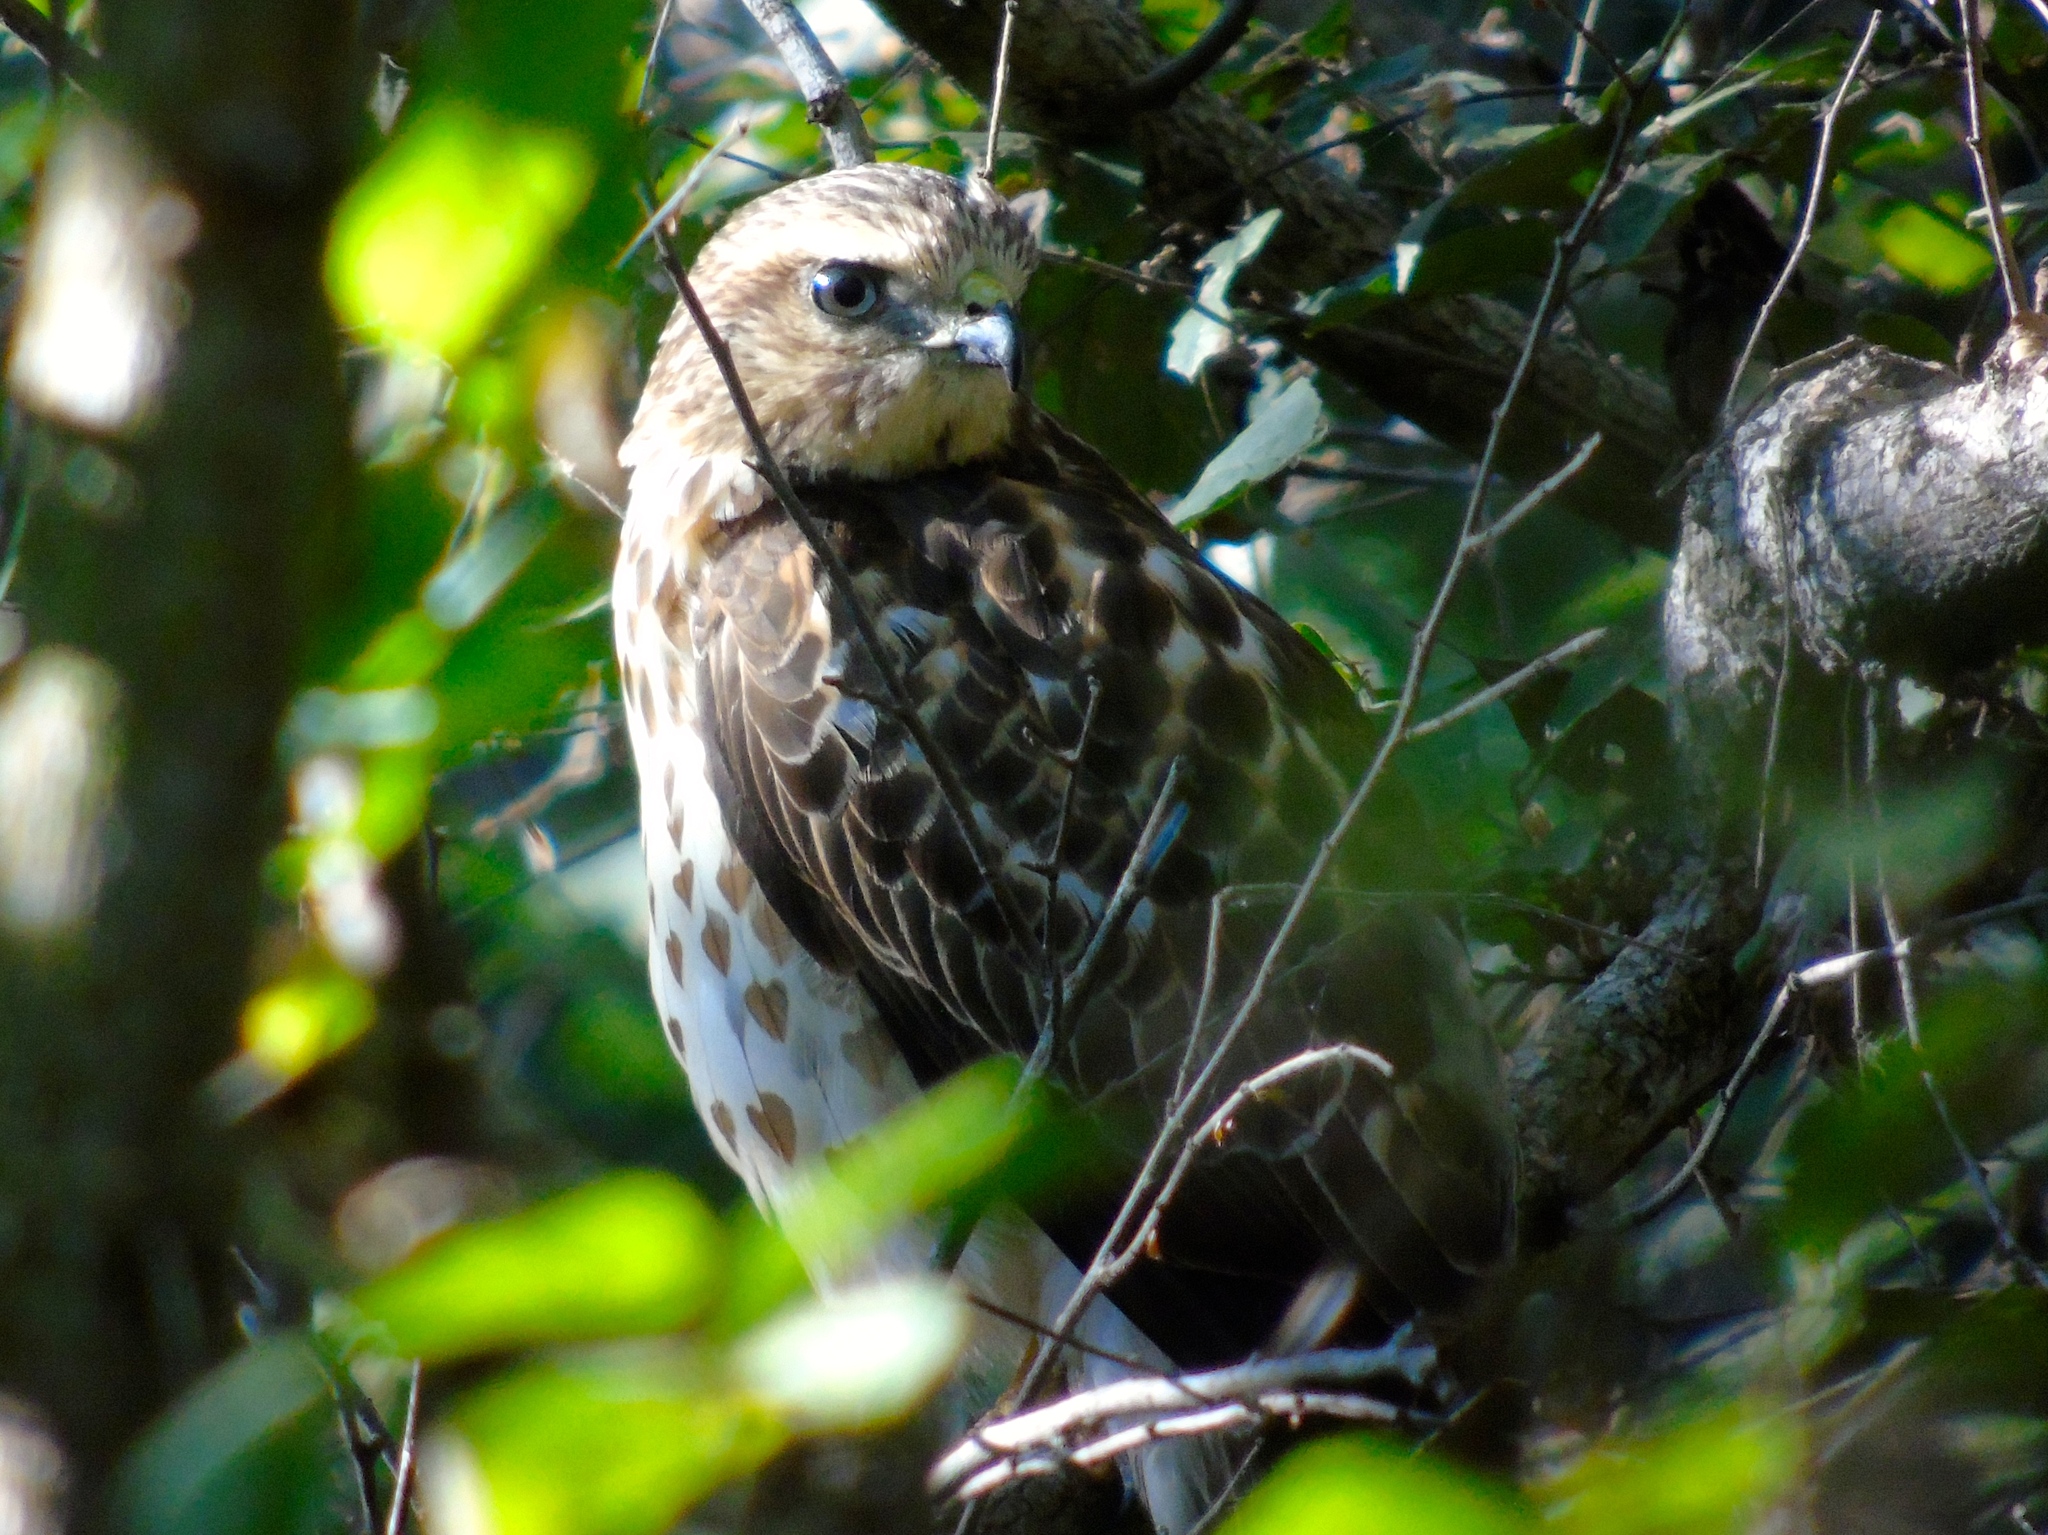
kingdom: Animalia
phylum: Chordata
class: Aves
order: Accipitriformes
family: Accipitridae
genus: Buteo
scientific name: Buteo platypterus
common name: Broad-winged hawk
